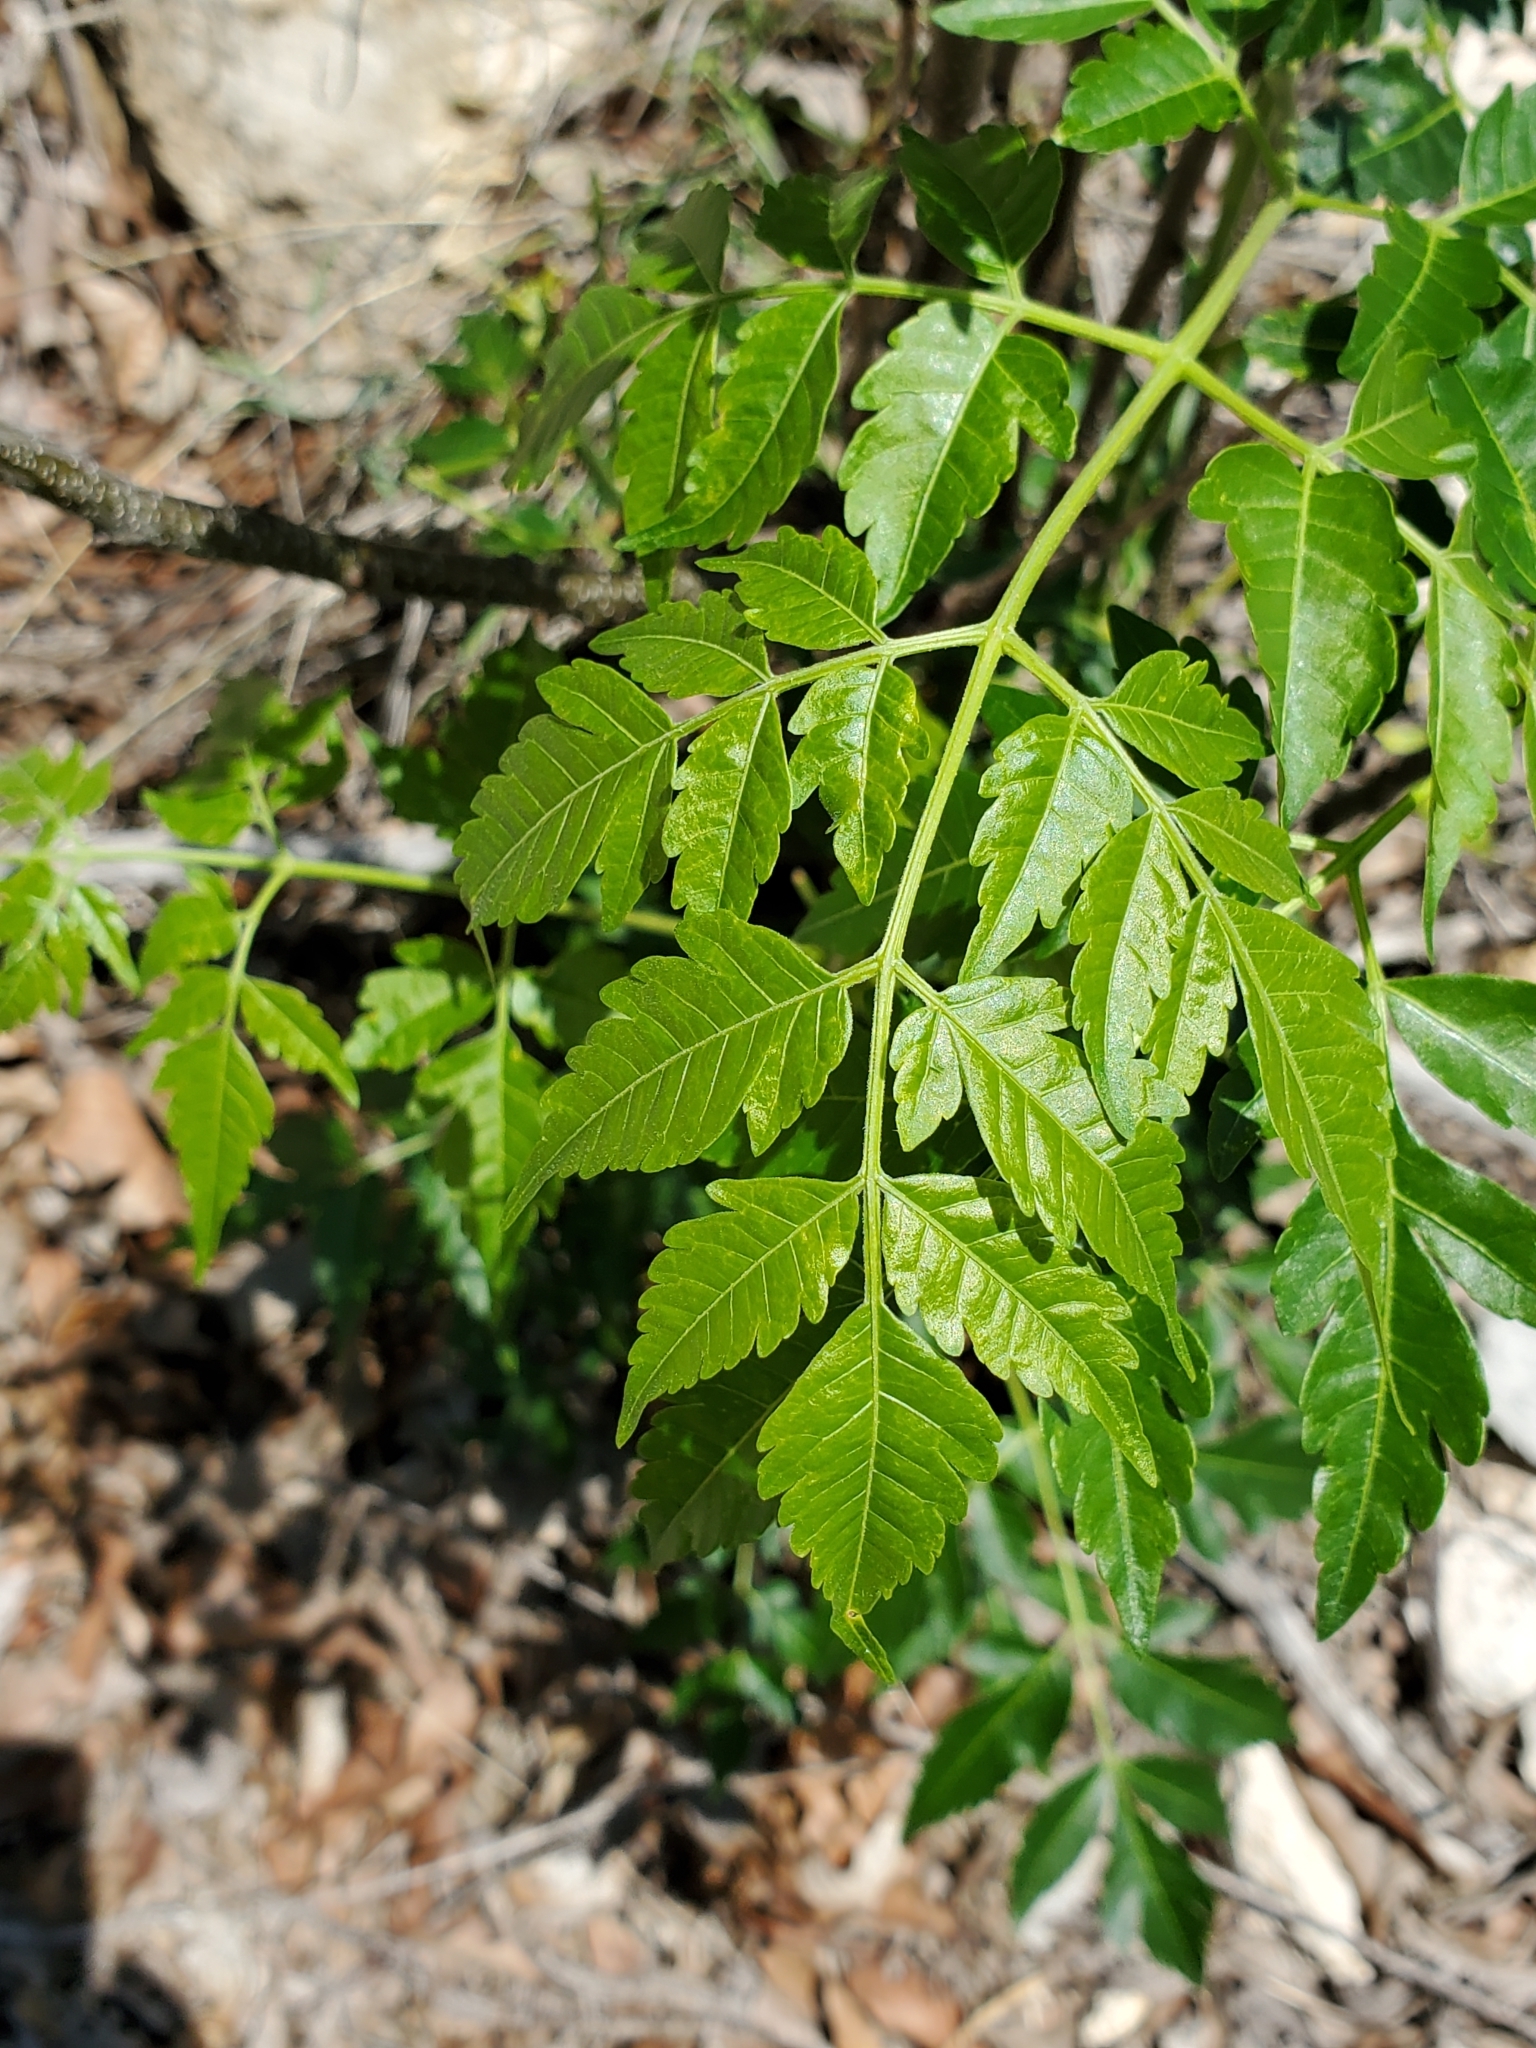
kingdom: Plantae
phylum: Tracheophyta
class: Magnoliopsida
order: Sapindales
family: Meliaceae
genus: Melia
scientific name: Melia azedarach
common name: Chinaberrytree
